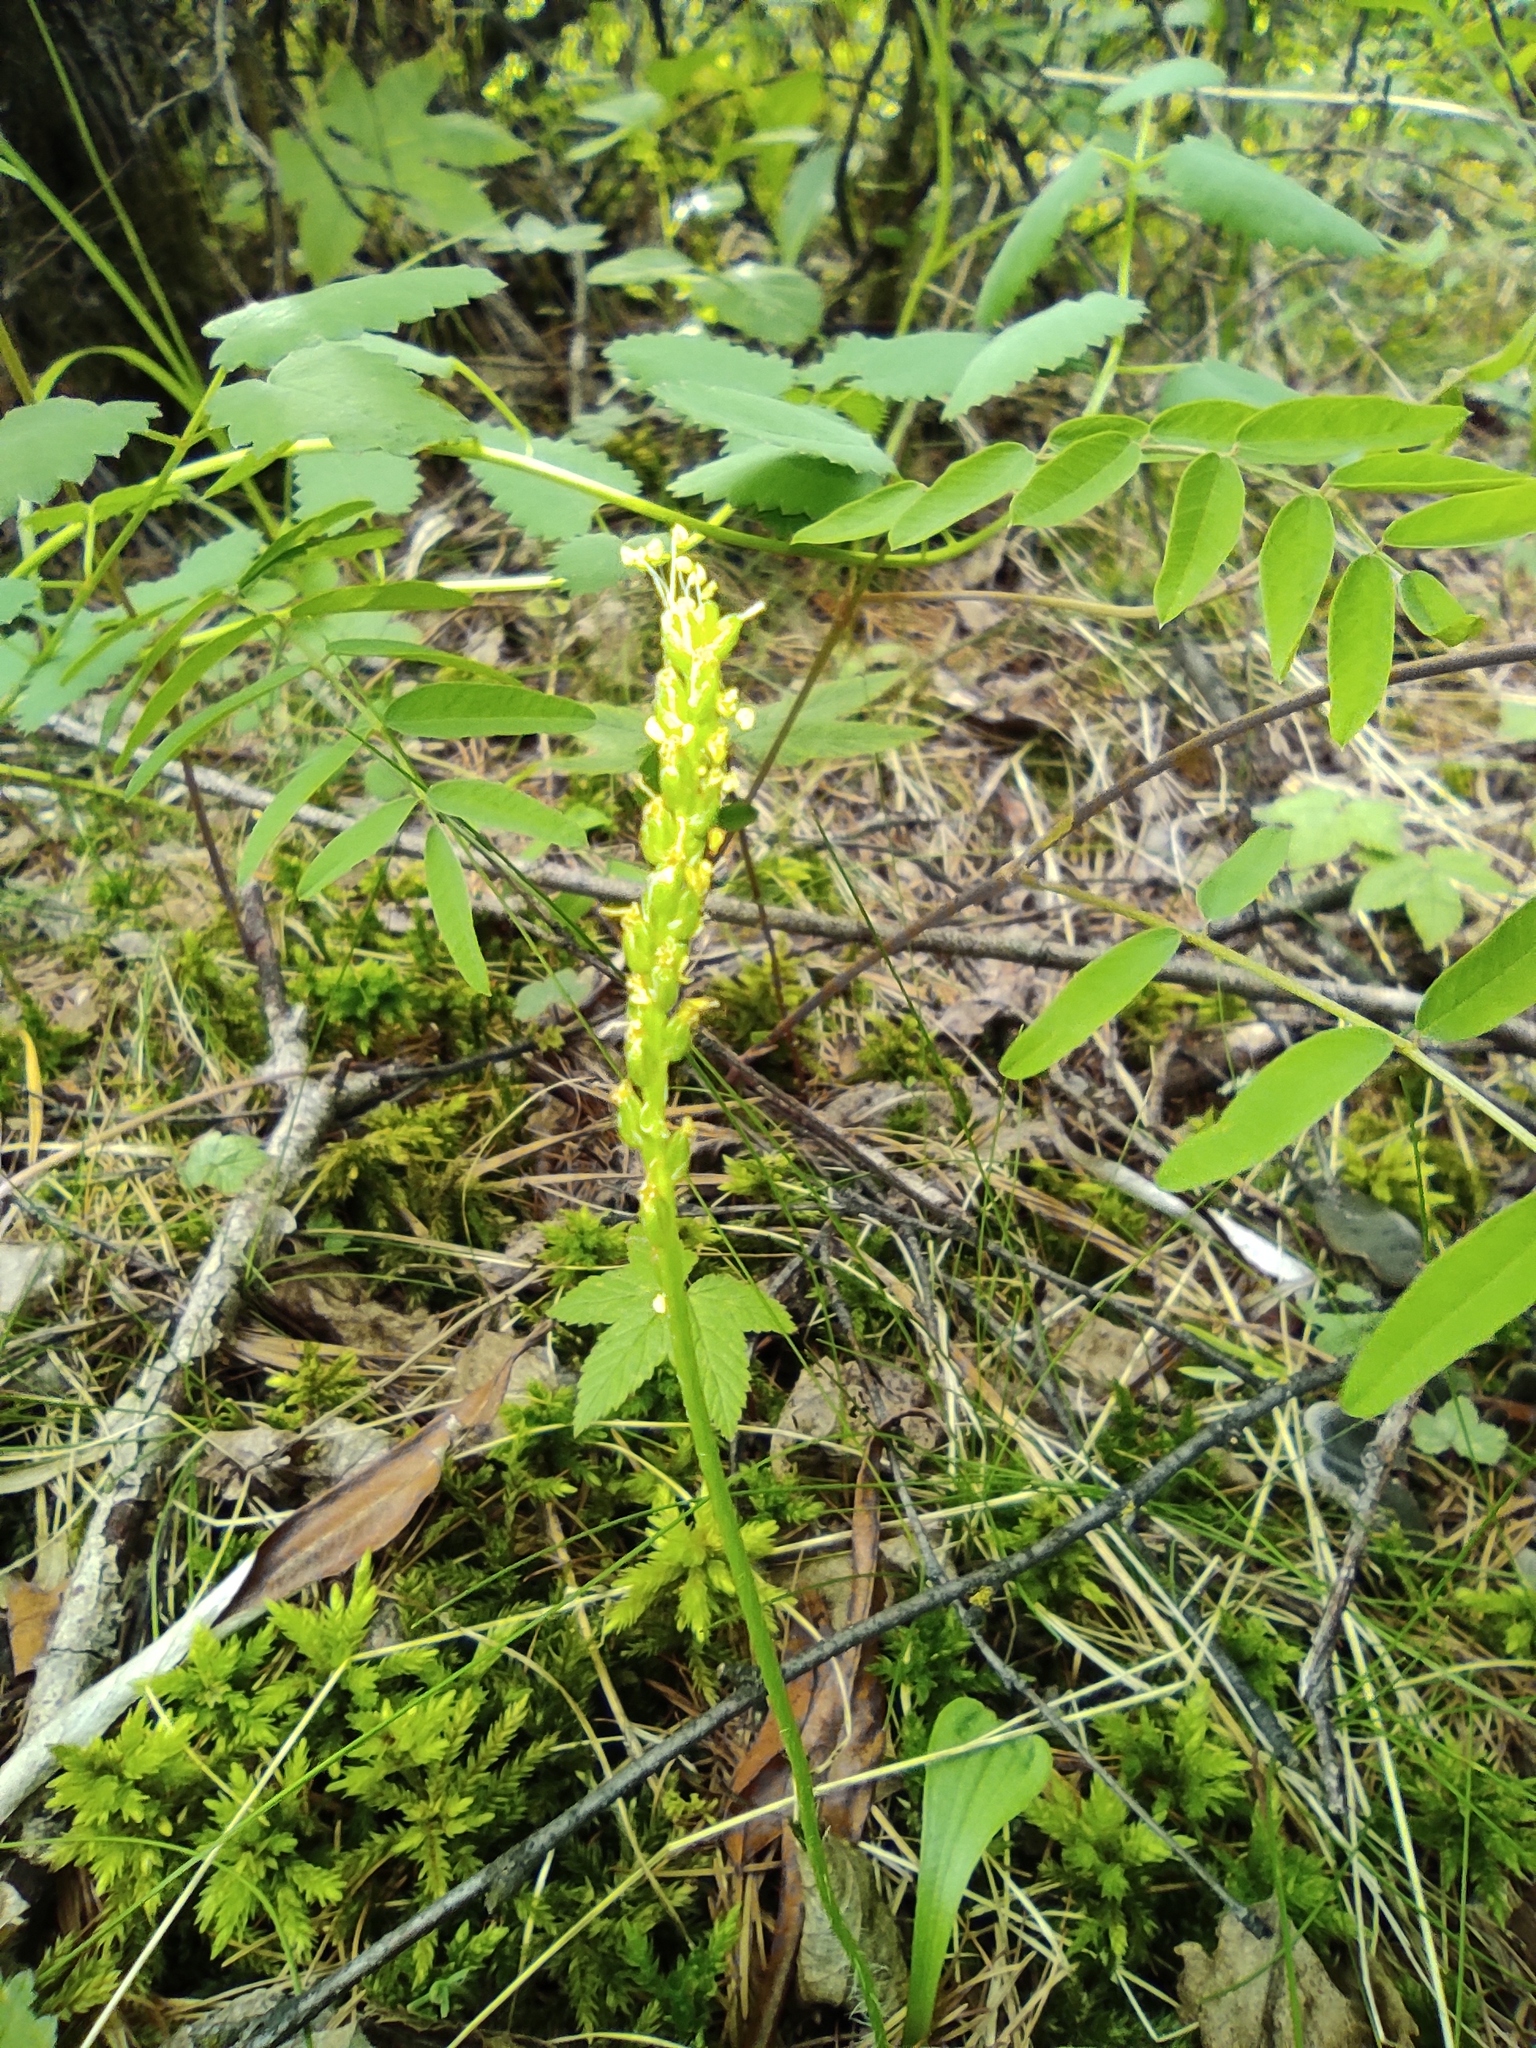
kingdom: Plantae
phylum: Tracheophyta
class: Magnoliopsida
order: Rosales
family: Rosaceae
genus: Sanguisorba
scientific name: Sanguisorba officinalis
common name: Great burnet
